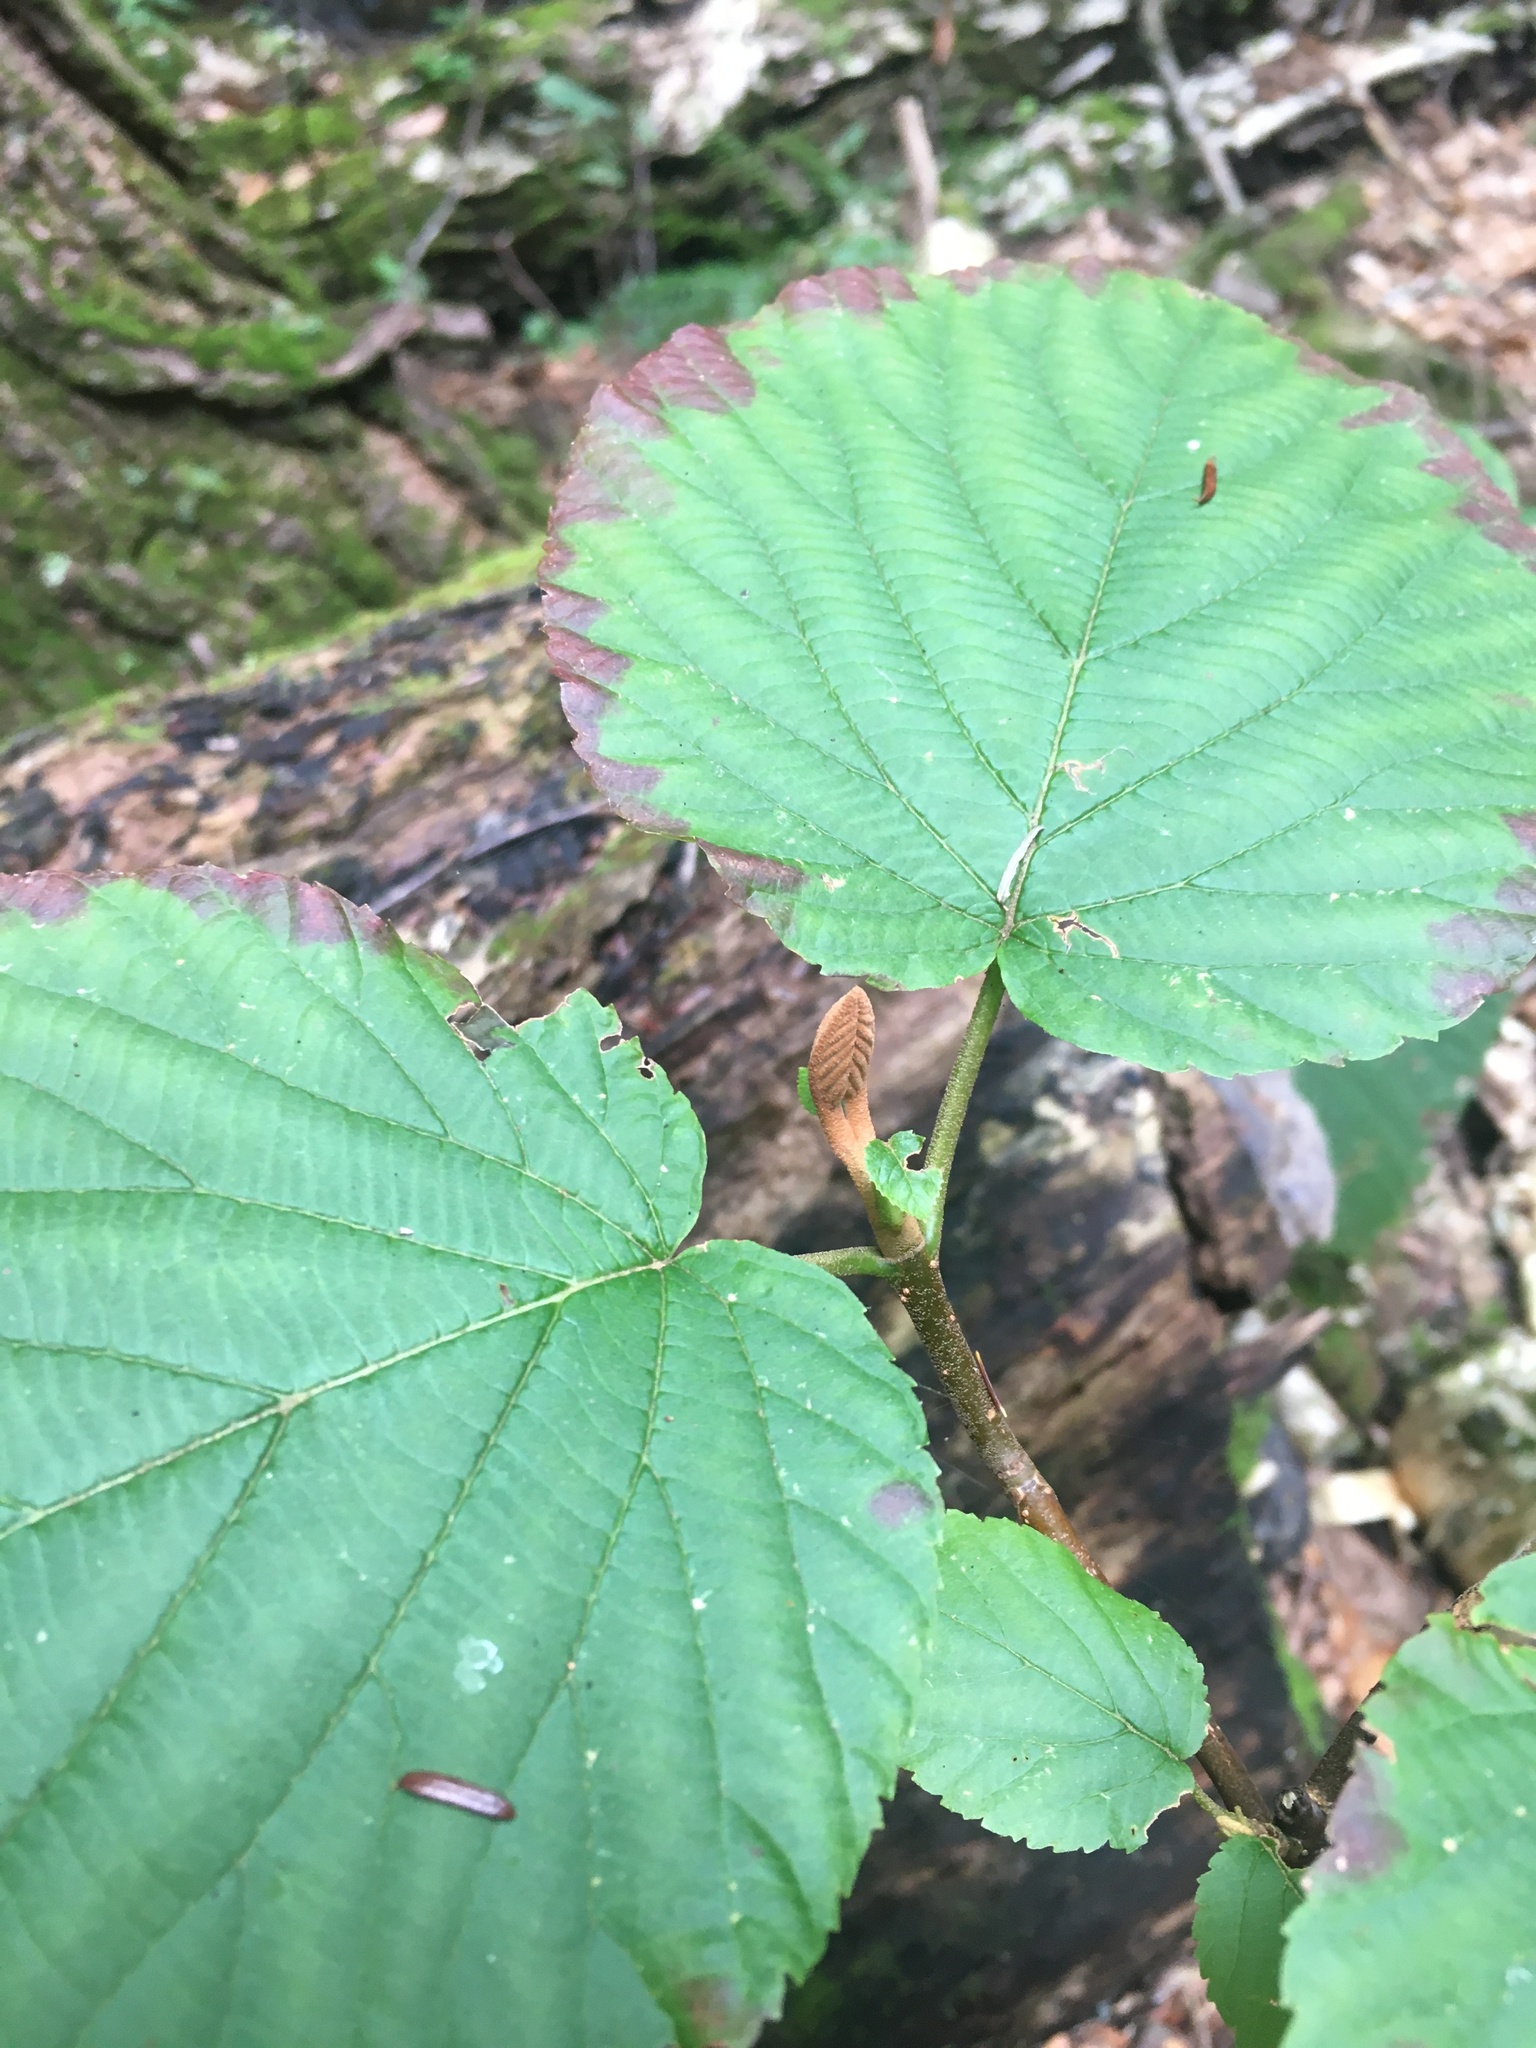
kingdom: Plantae
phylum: Tracheophyta
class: Magnoliopsida
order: Dipsacales
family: Viburnaceae
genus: Viburnum
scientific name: Viburnum lantanoides
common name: Hobblebush
